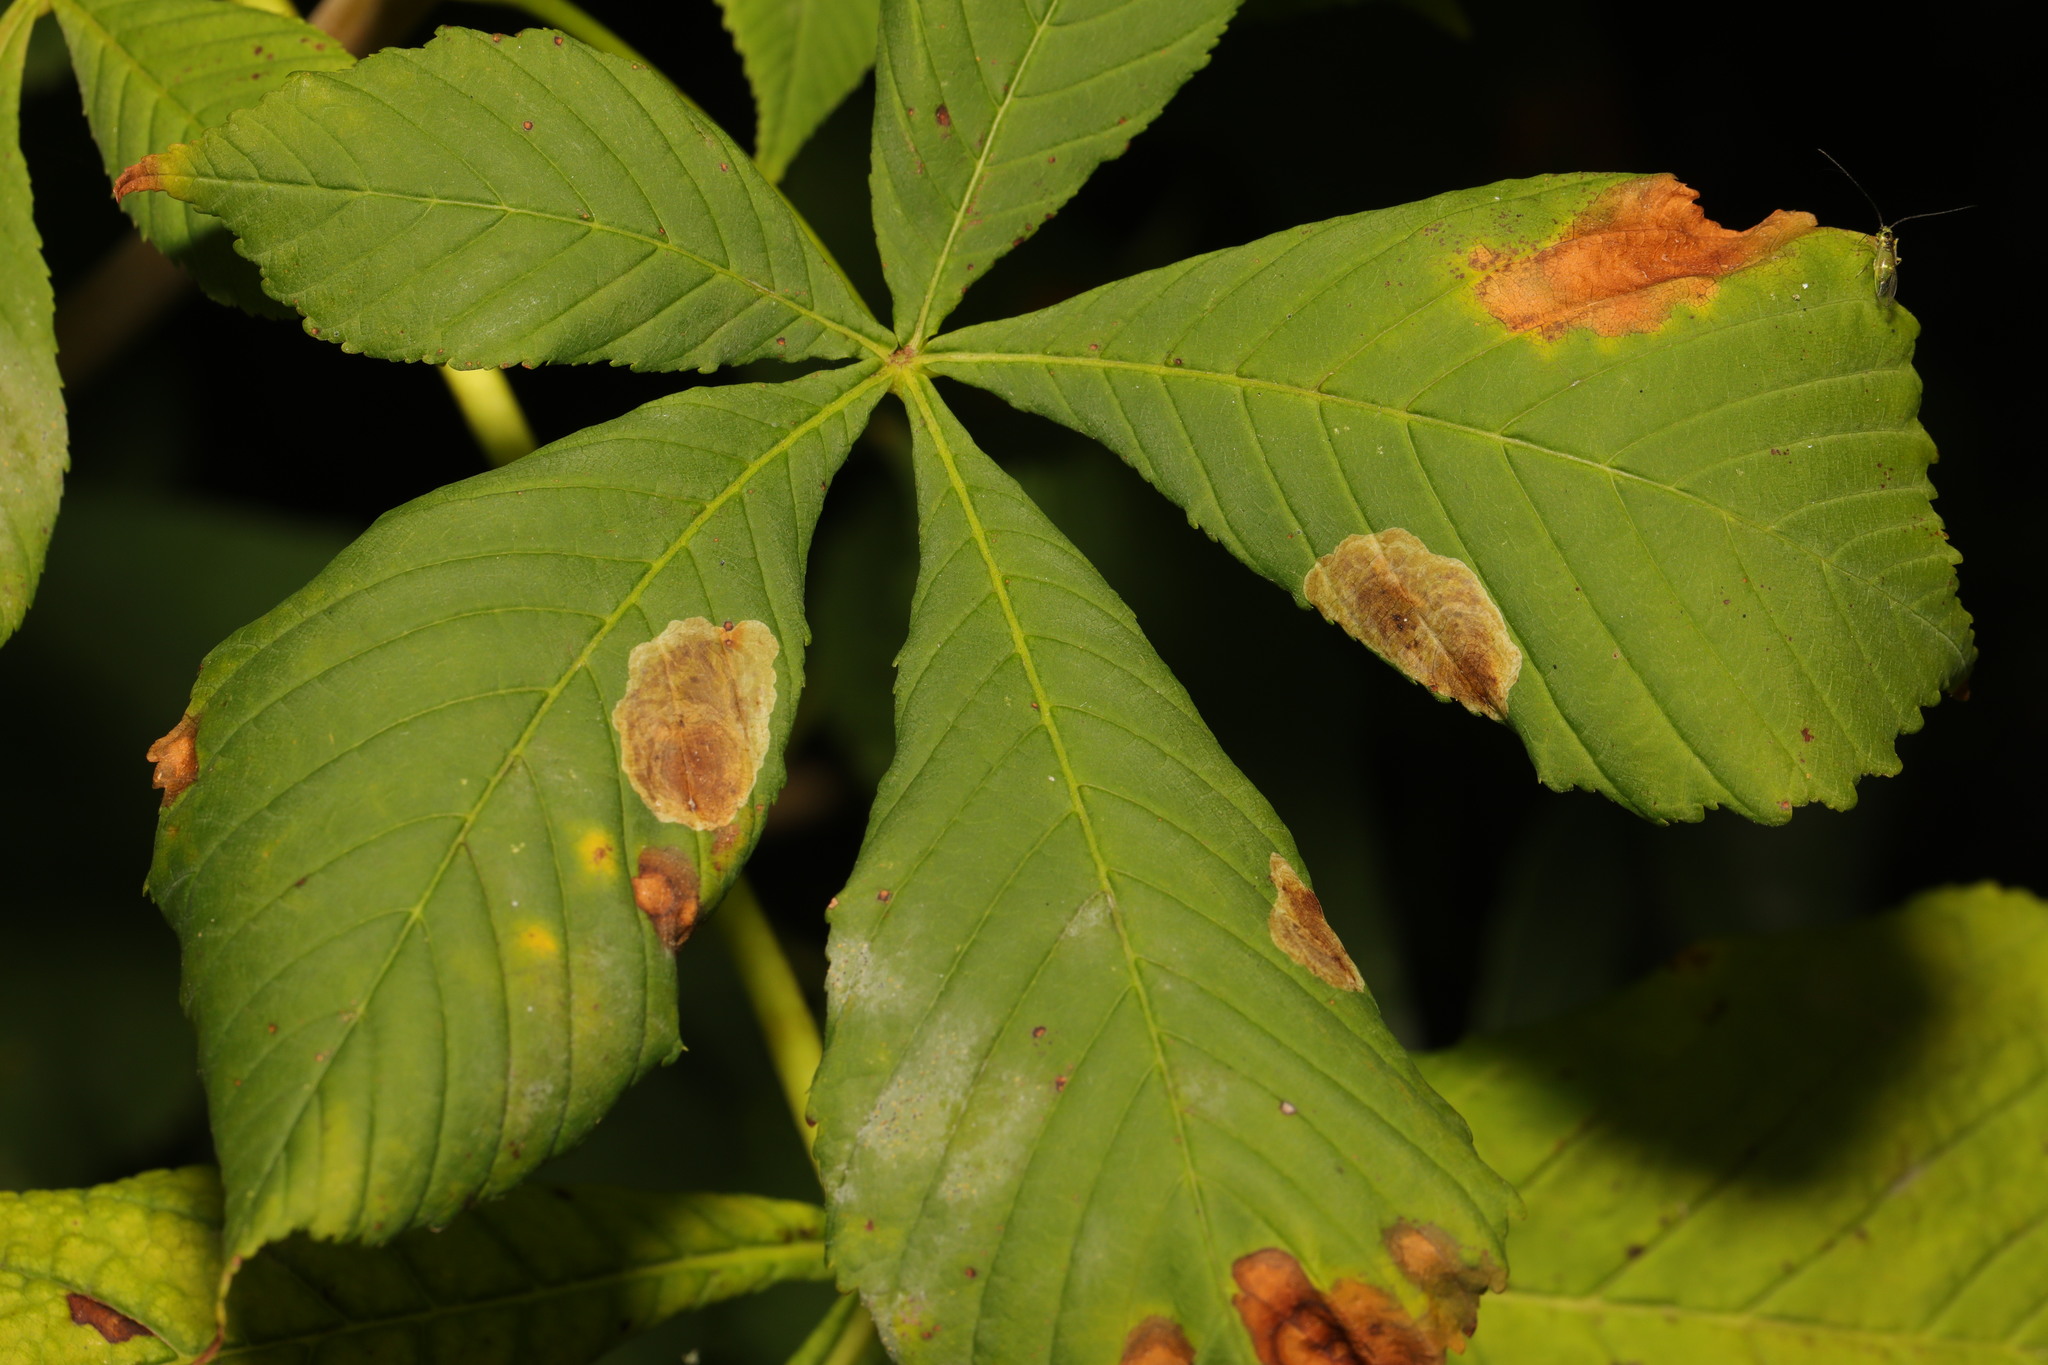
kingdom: Animalia
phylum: Arthropoda
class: Insecta
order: Lepidoptera
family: Gracillariidae
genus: Cameraria
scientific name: Cameraria ohridella
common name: Horse-chestnut leaf-miner
